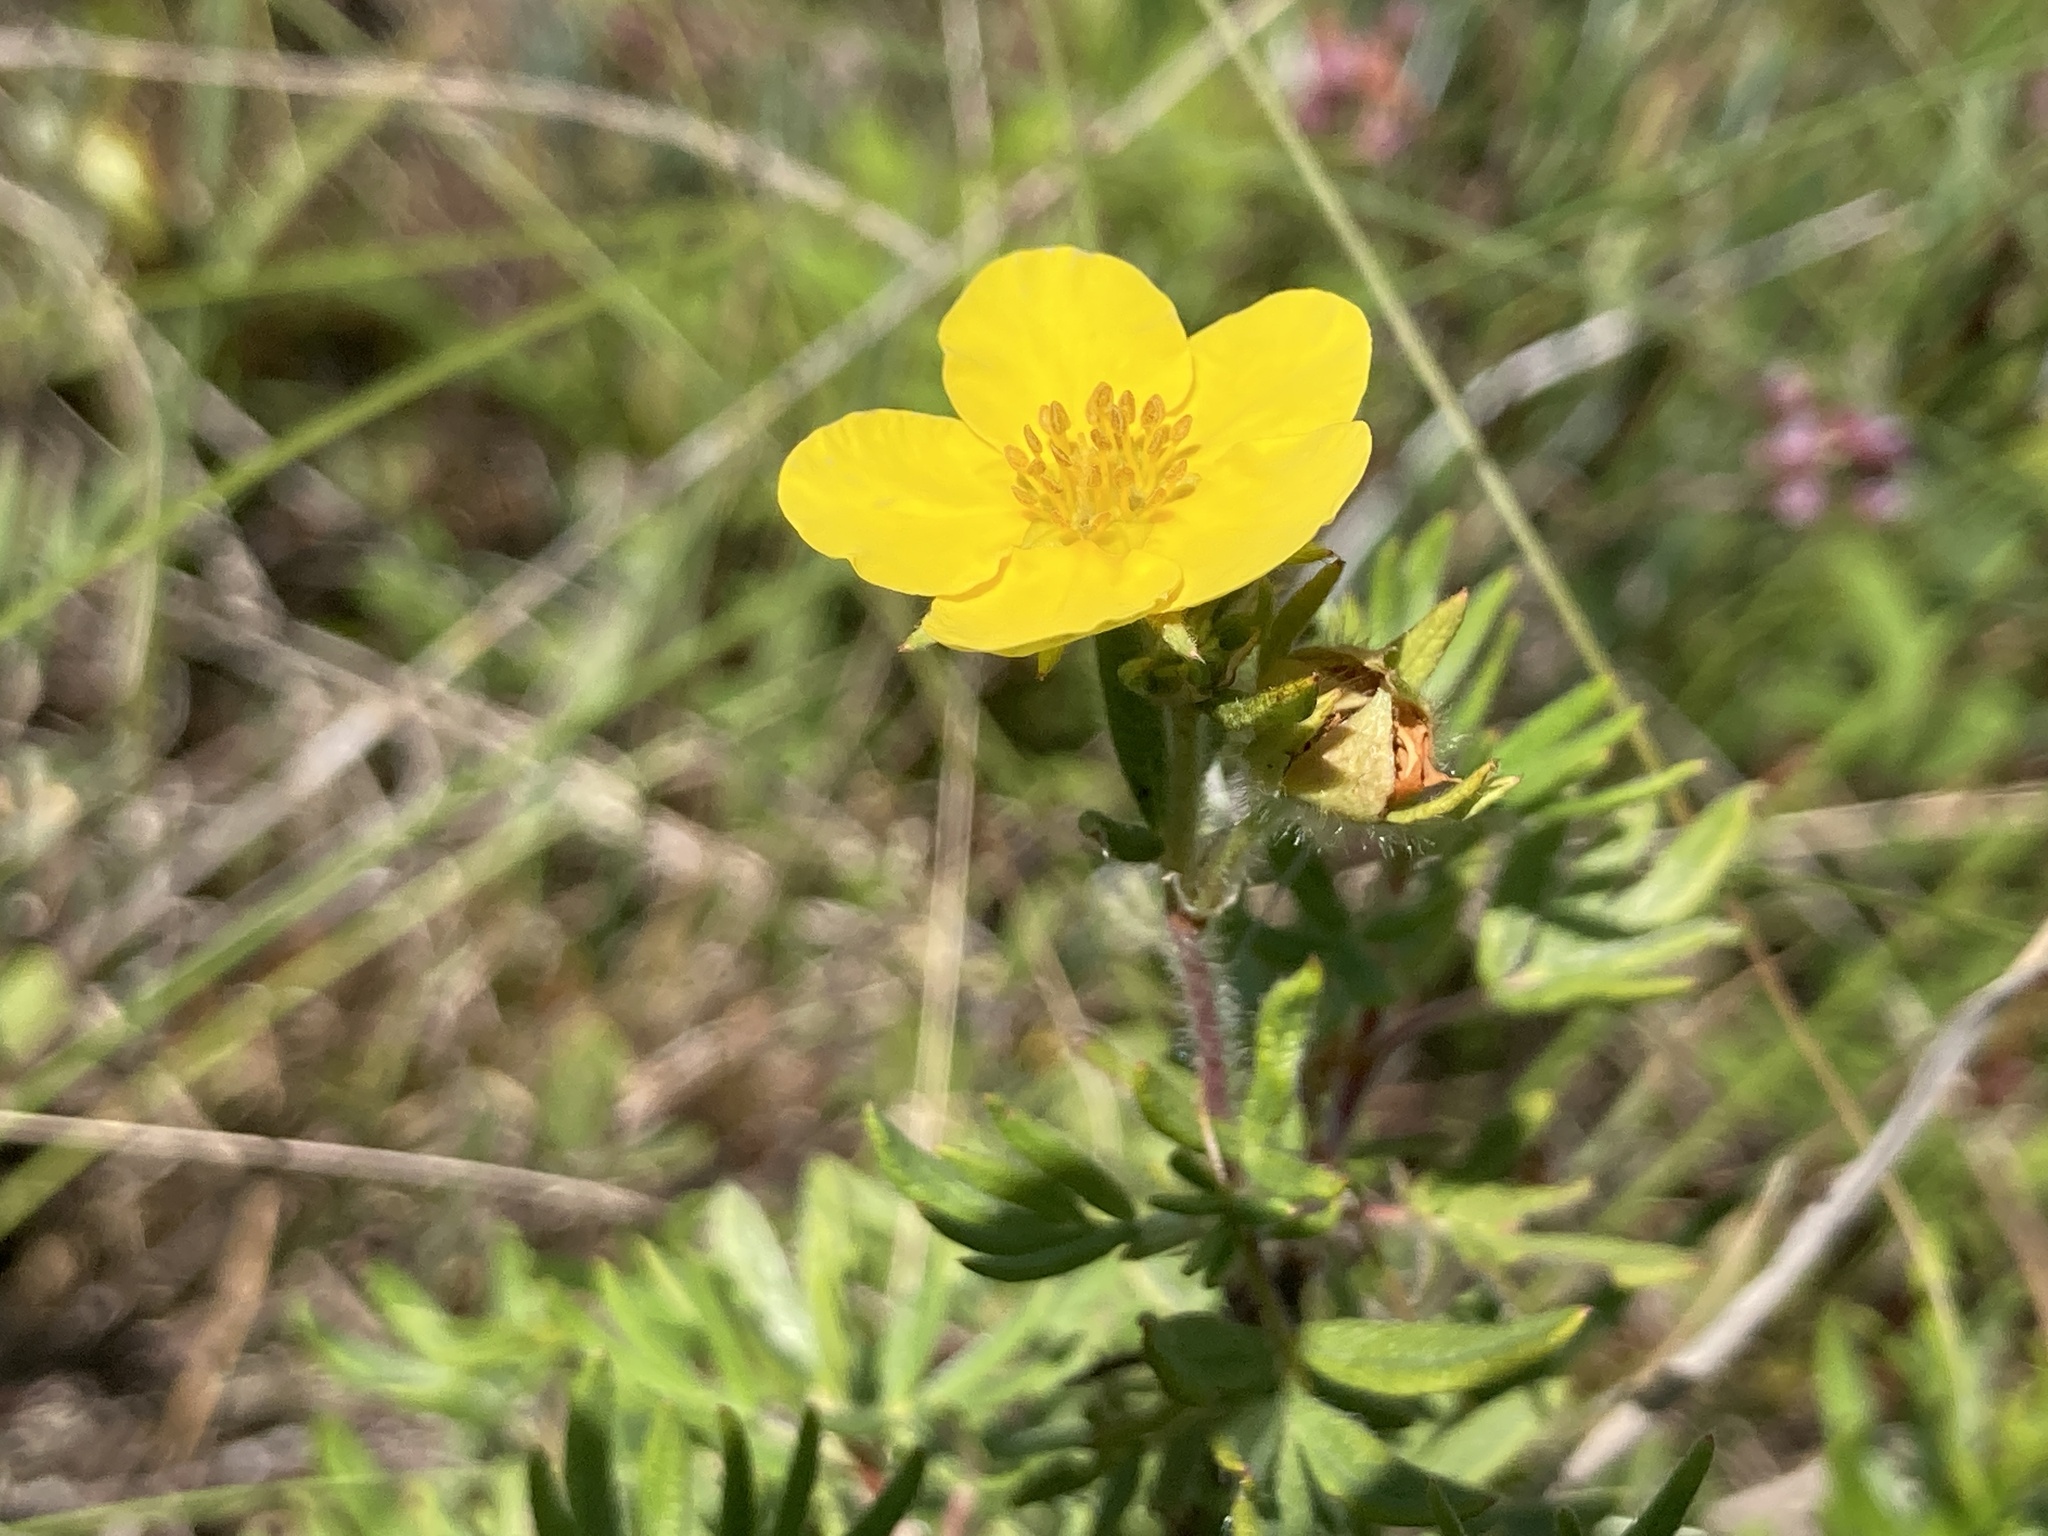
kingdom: Plantae
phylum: Tracheophyta
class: Magnoliopsida
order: Rosales
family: Rosaceae
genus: Dasiphora
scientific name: Dasiphora fruticosa
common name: Shrubby cinquefoil
